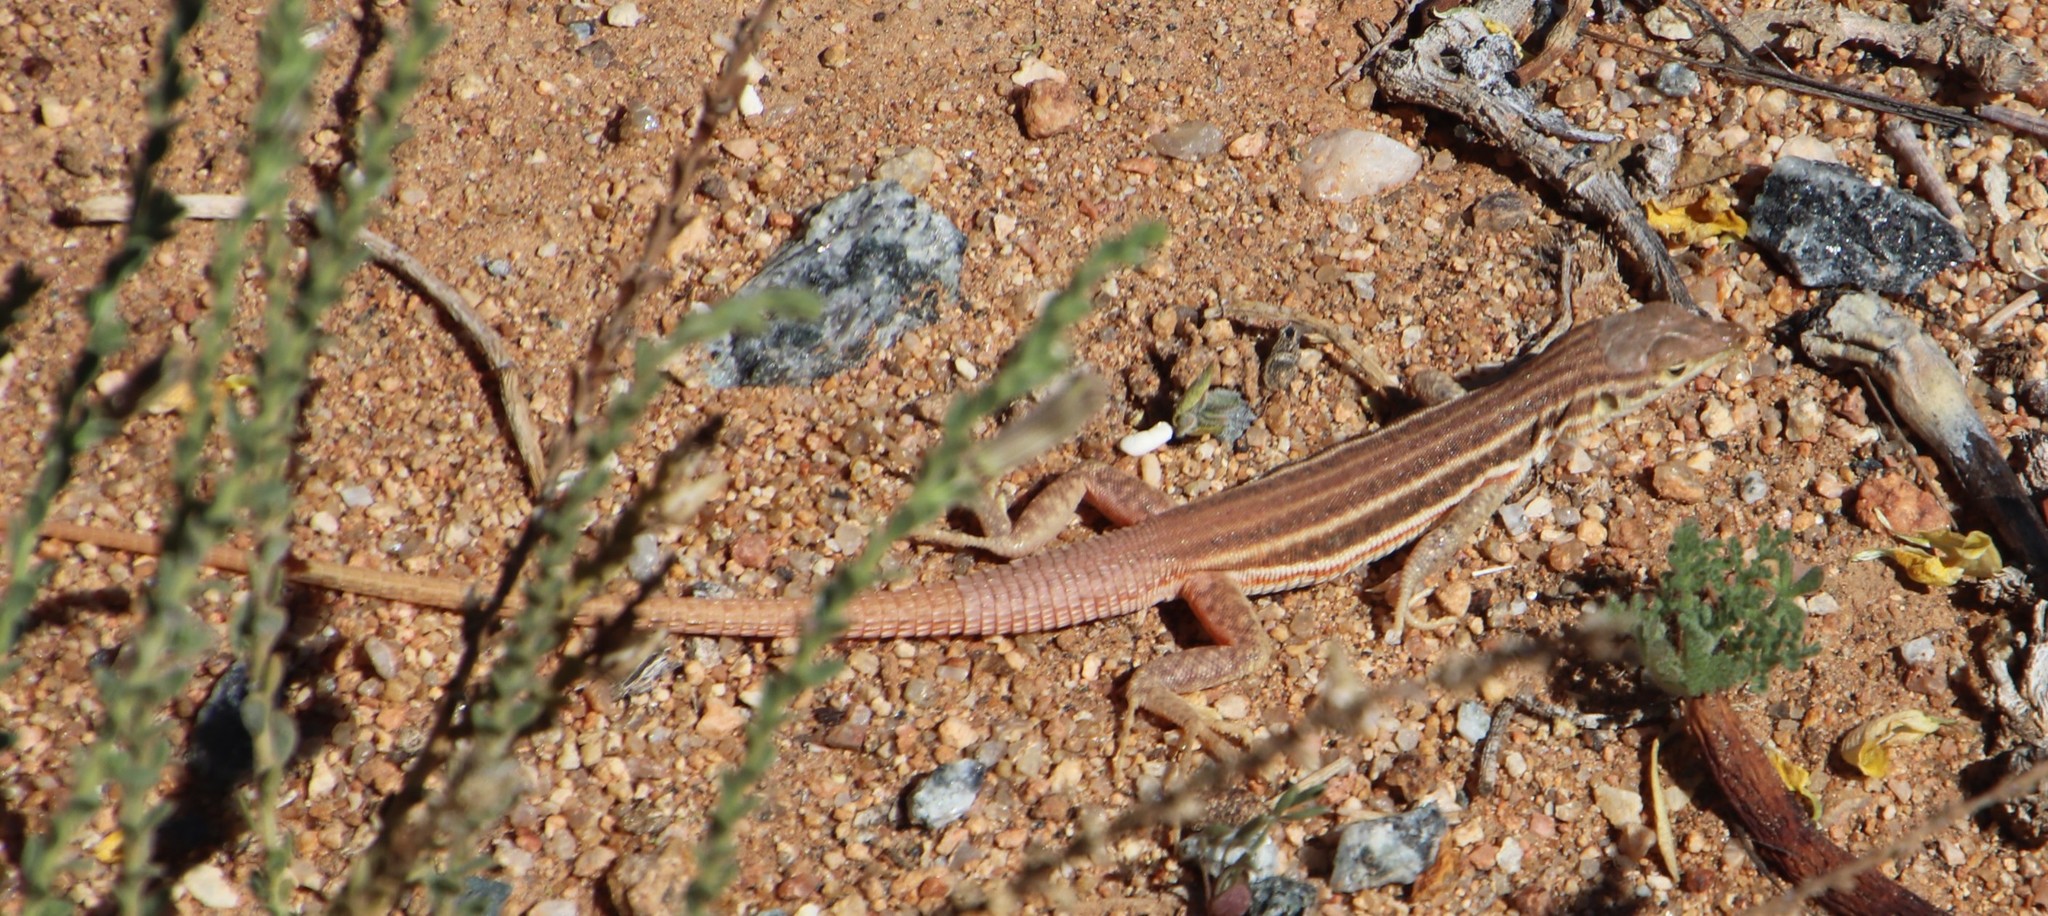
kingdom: Animalia
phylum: Chordata
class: Squamata
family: Lacertidae
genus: Pedioplanis
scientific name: Pedioplanis namaquensis
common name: Namaqua sand lizard
